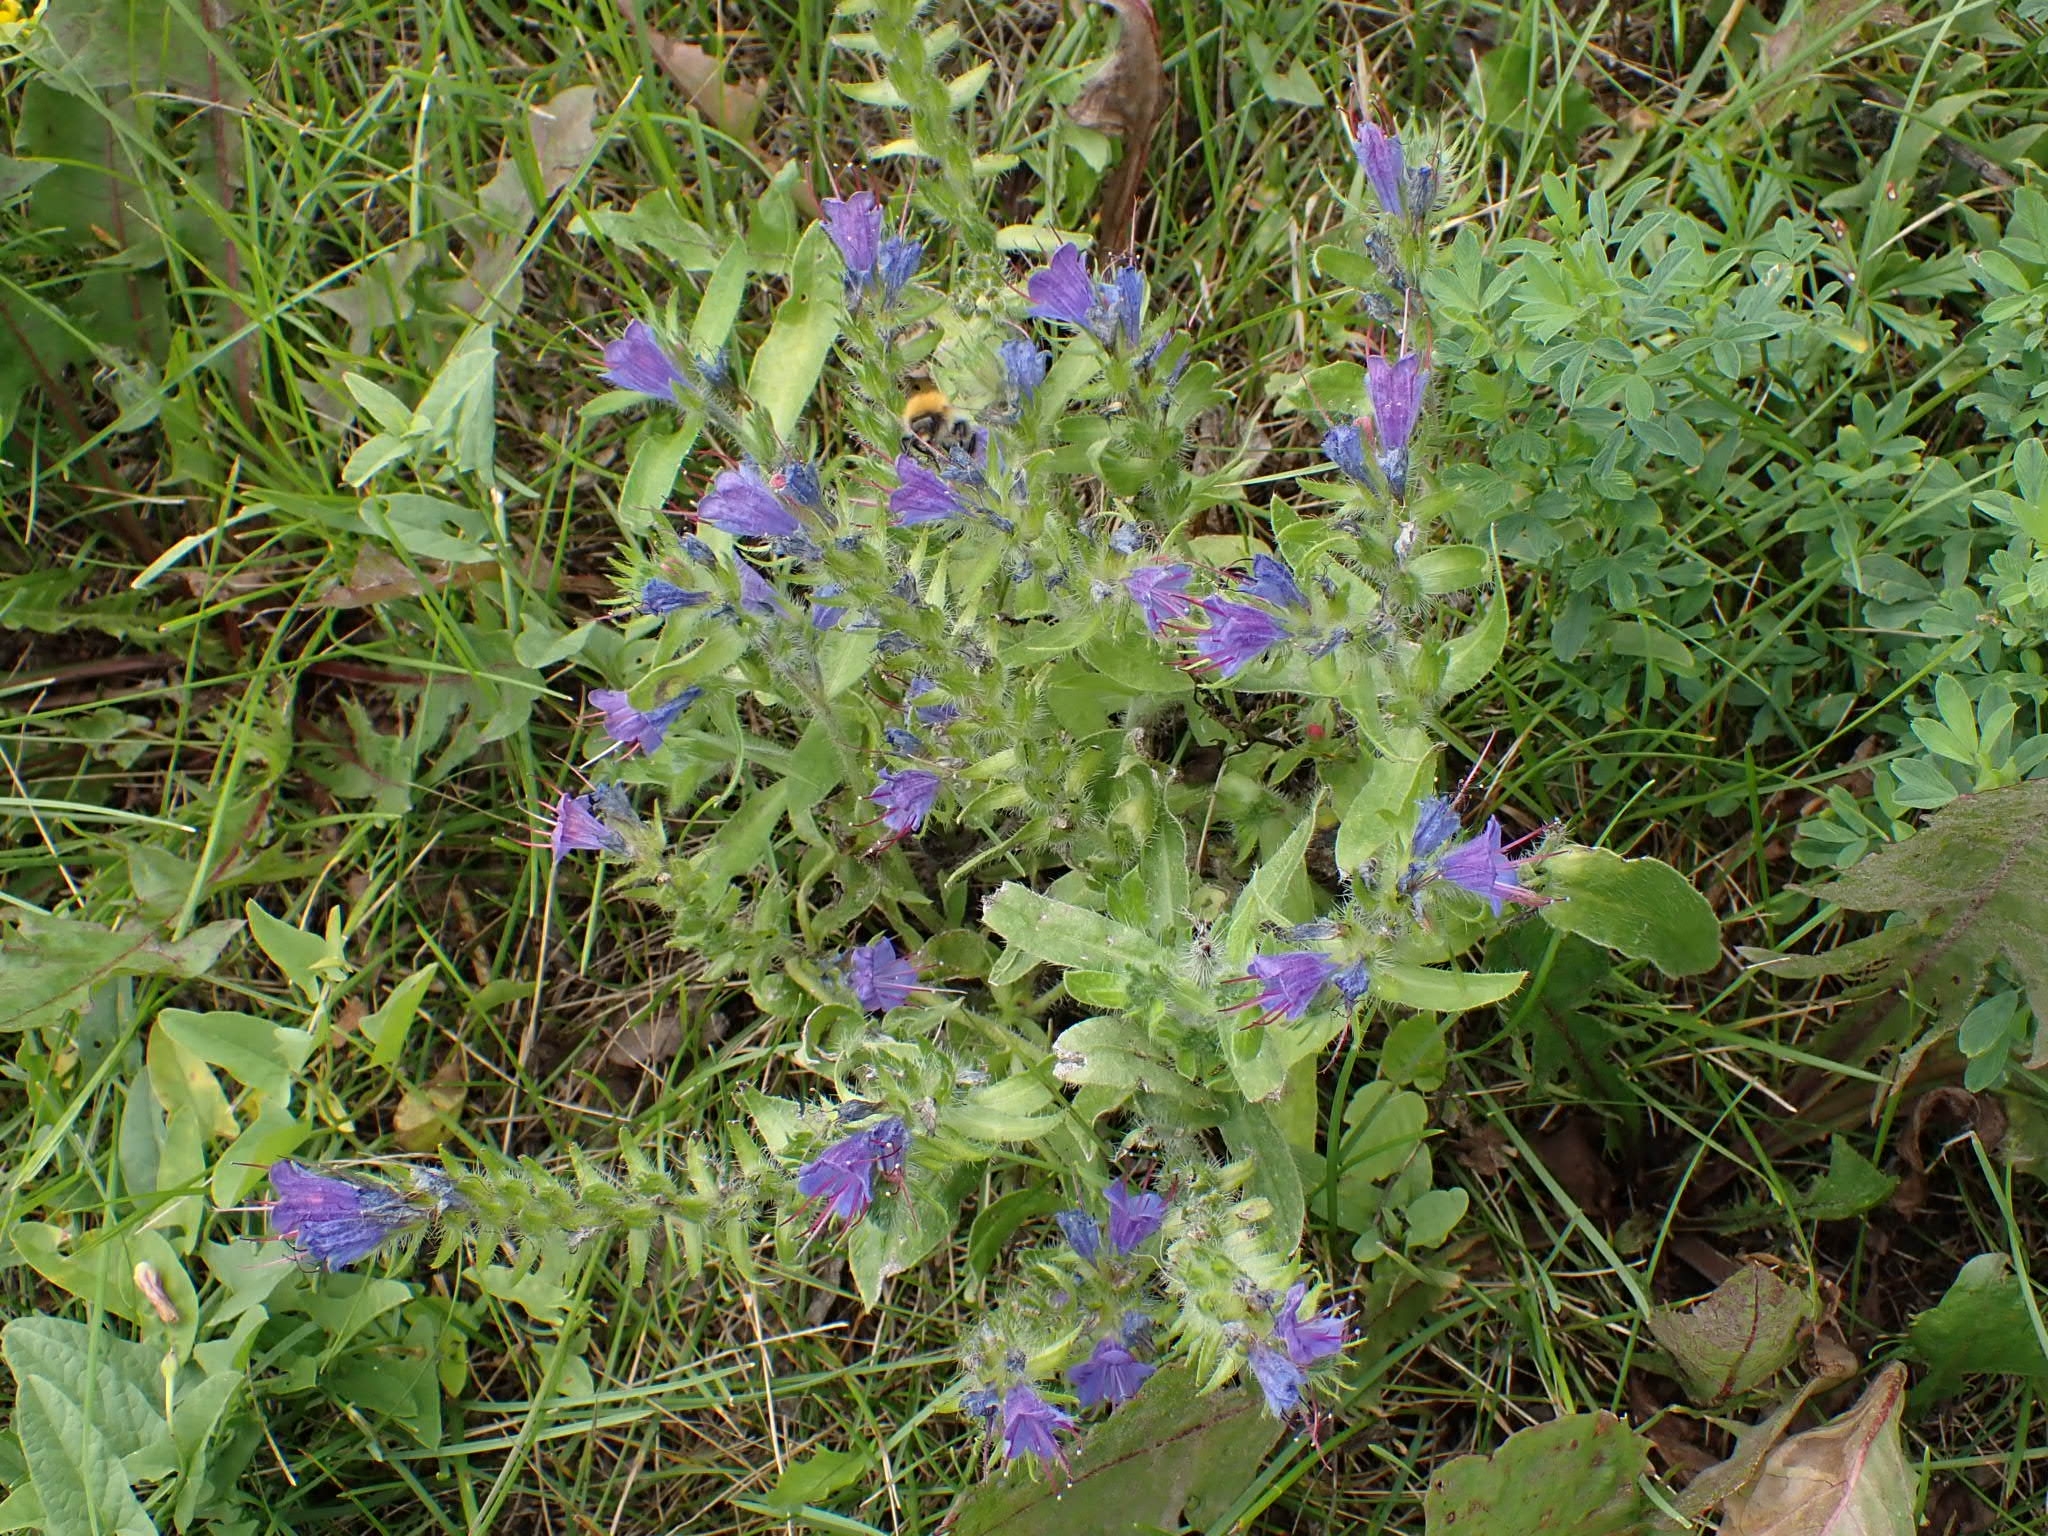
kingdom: Plantae
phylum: Tracheophyta
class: Magnoliopsida
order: Boraginales
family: Boraginaceae
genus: Echium
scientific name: Echium vulgare
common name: Common viper's bugloss
